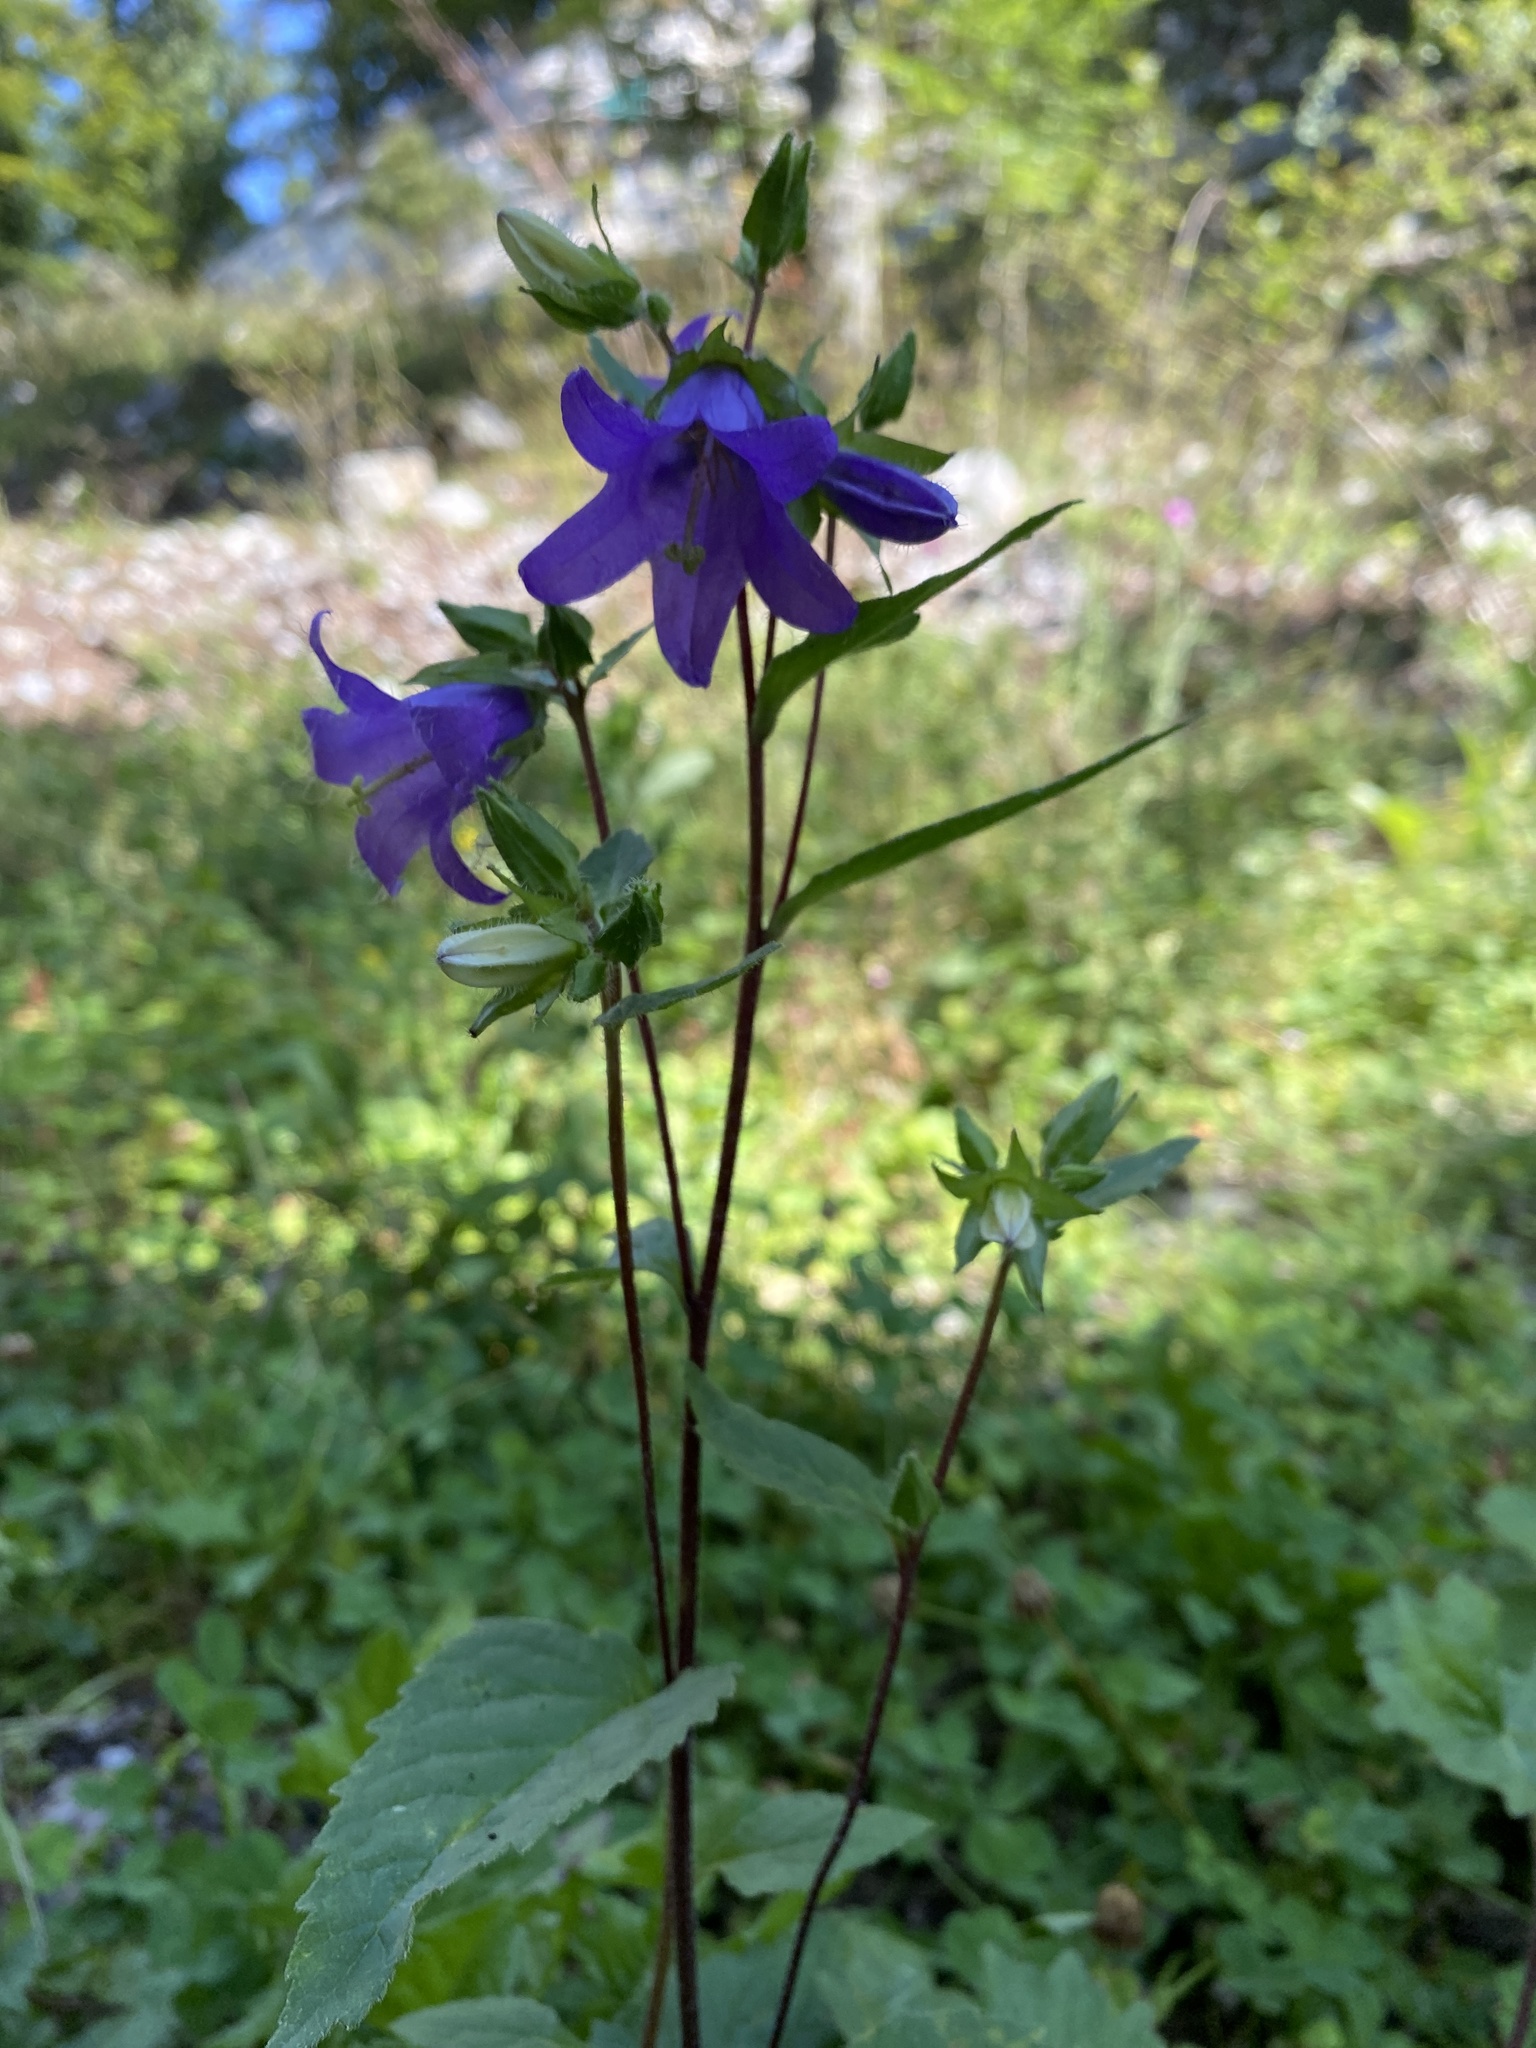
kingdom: Plantae
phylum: Tracheophyta
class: Magnoliopsida
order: Asterales
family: Campanulaceae
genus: Campanula
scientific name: Campanula trachelium
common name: Nettle-leaved bellflower
